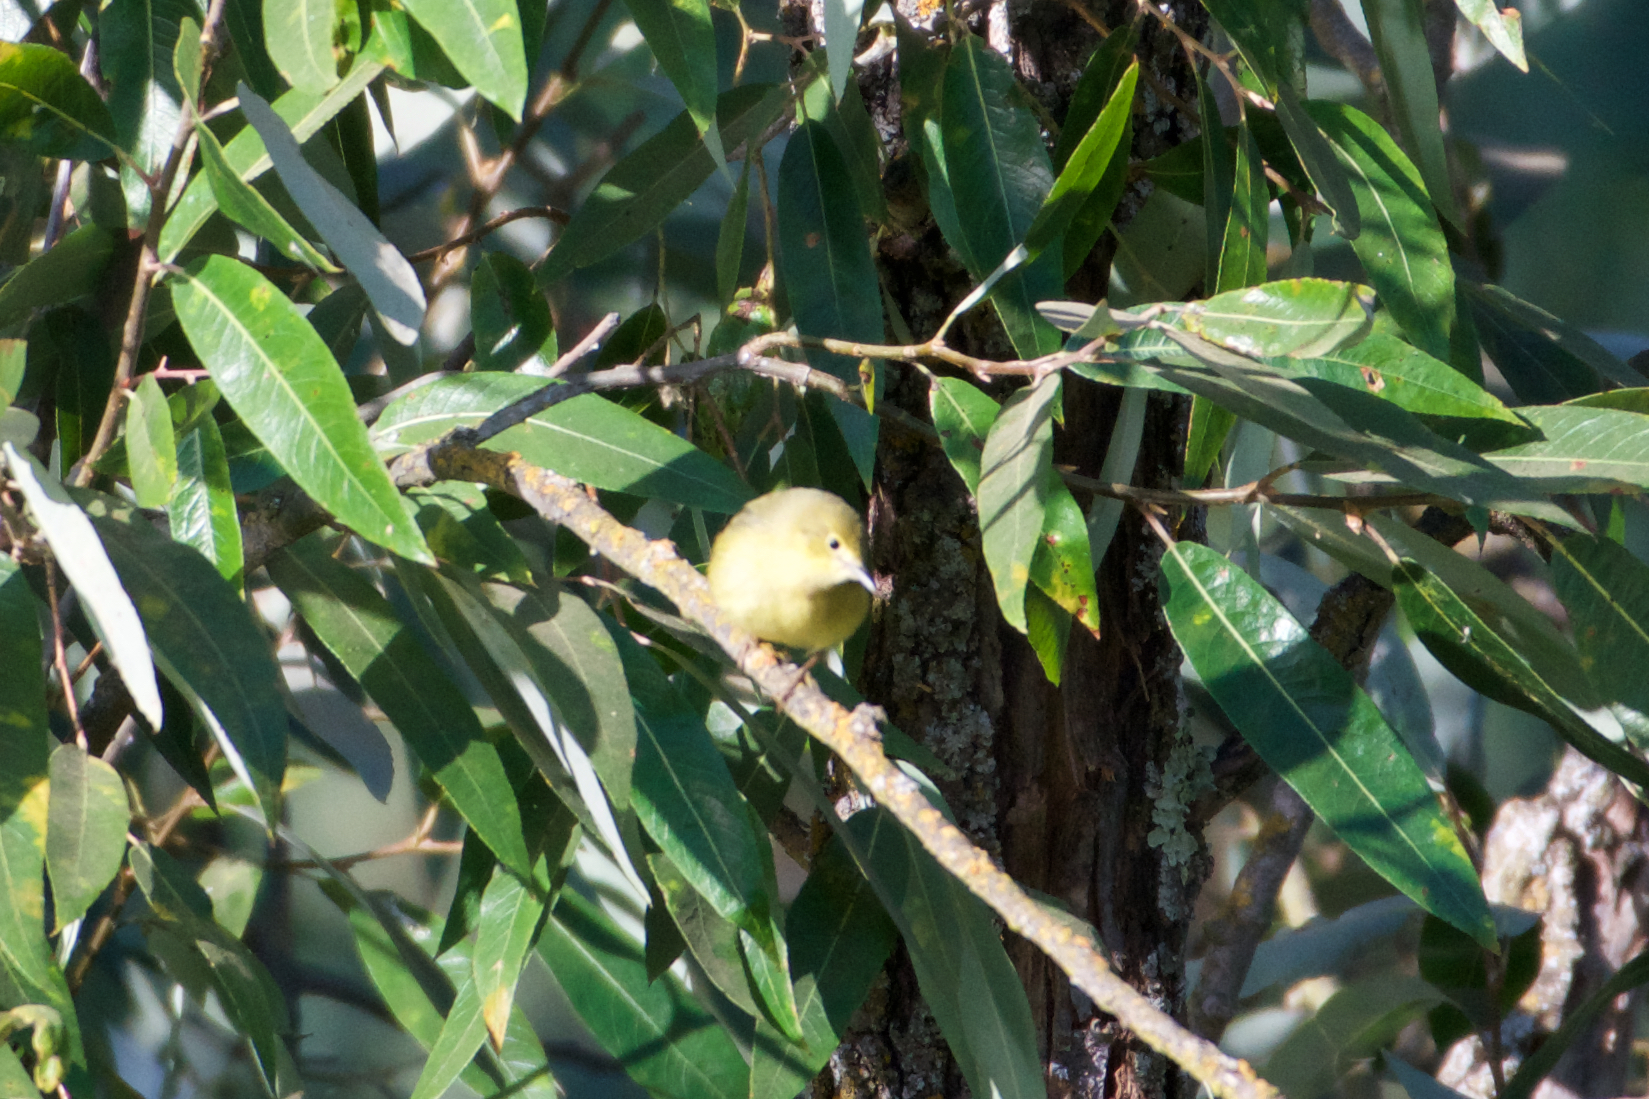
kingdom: Animalia
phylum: Chordata
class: Aves
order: Passeriformes
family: Parulidae
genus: Setophaga
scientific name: Setophaga petechia
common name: Yellow warbler
